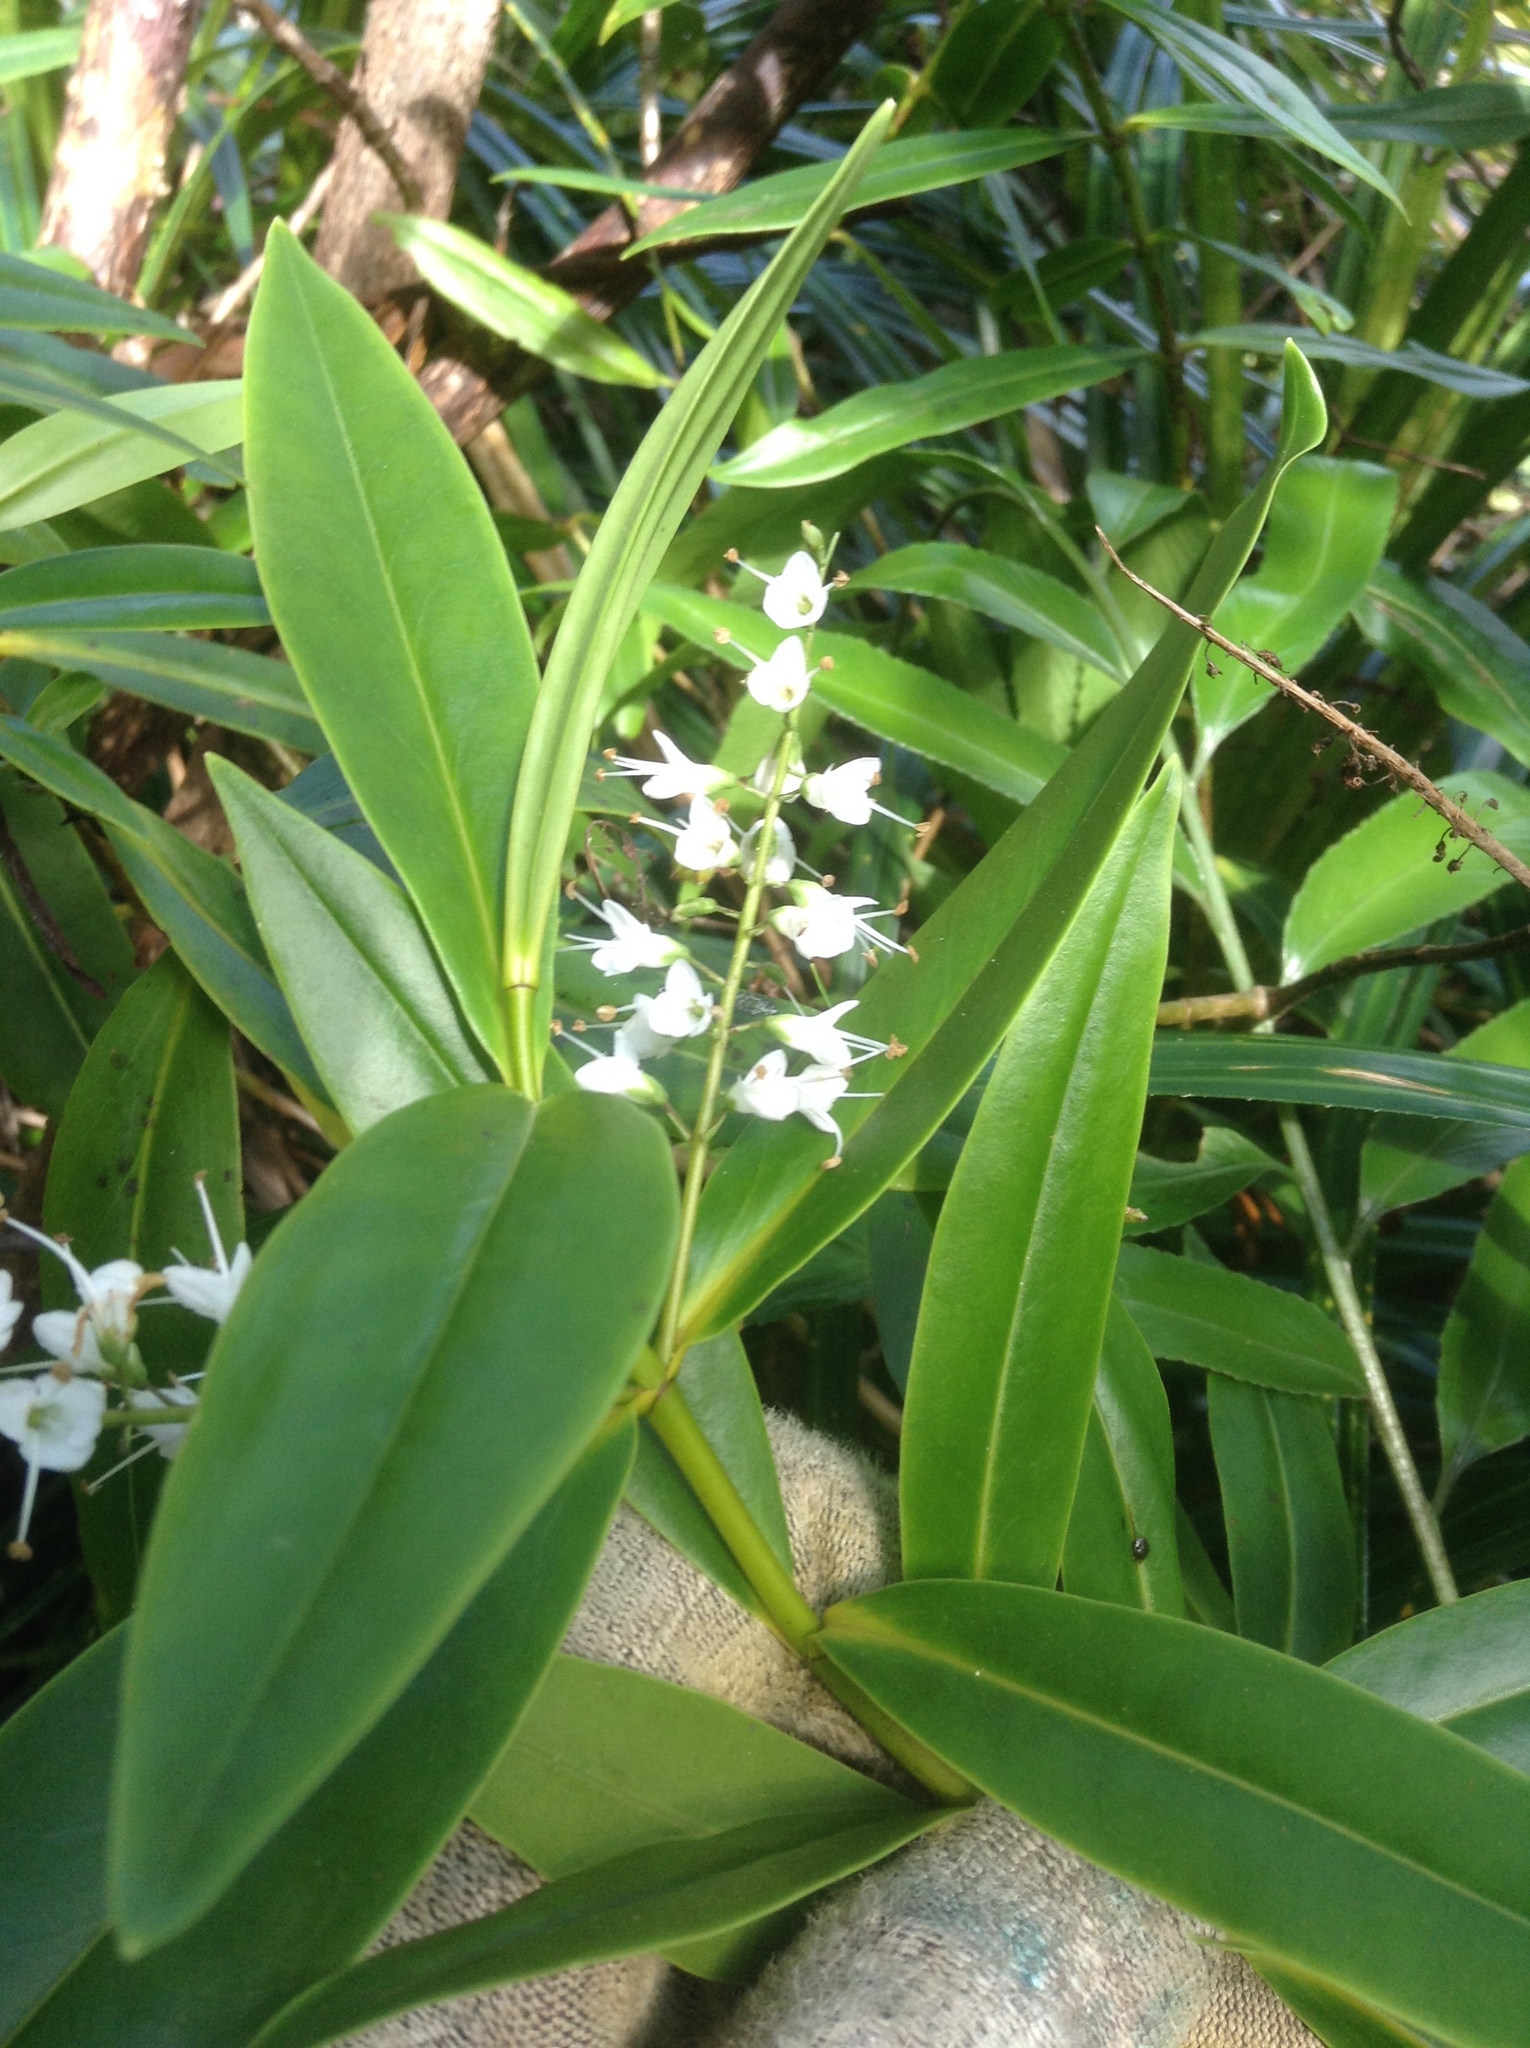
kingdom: Plantae
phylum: Tracheophyta
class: Magnoliopsida
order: Lamiales
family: Plantaginaceae
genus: Veronica
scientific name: Veronica macrocarpa
